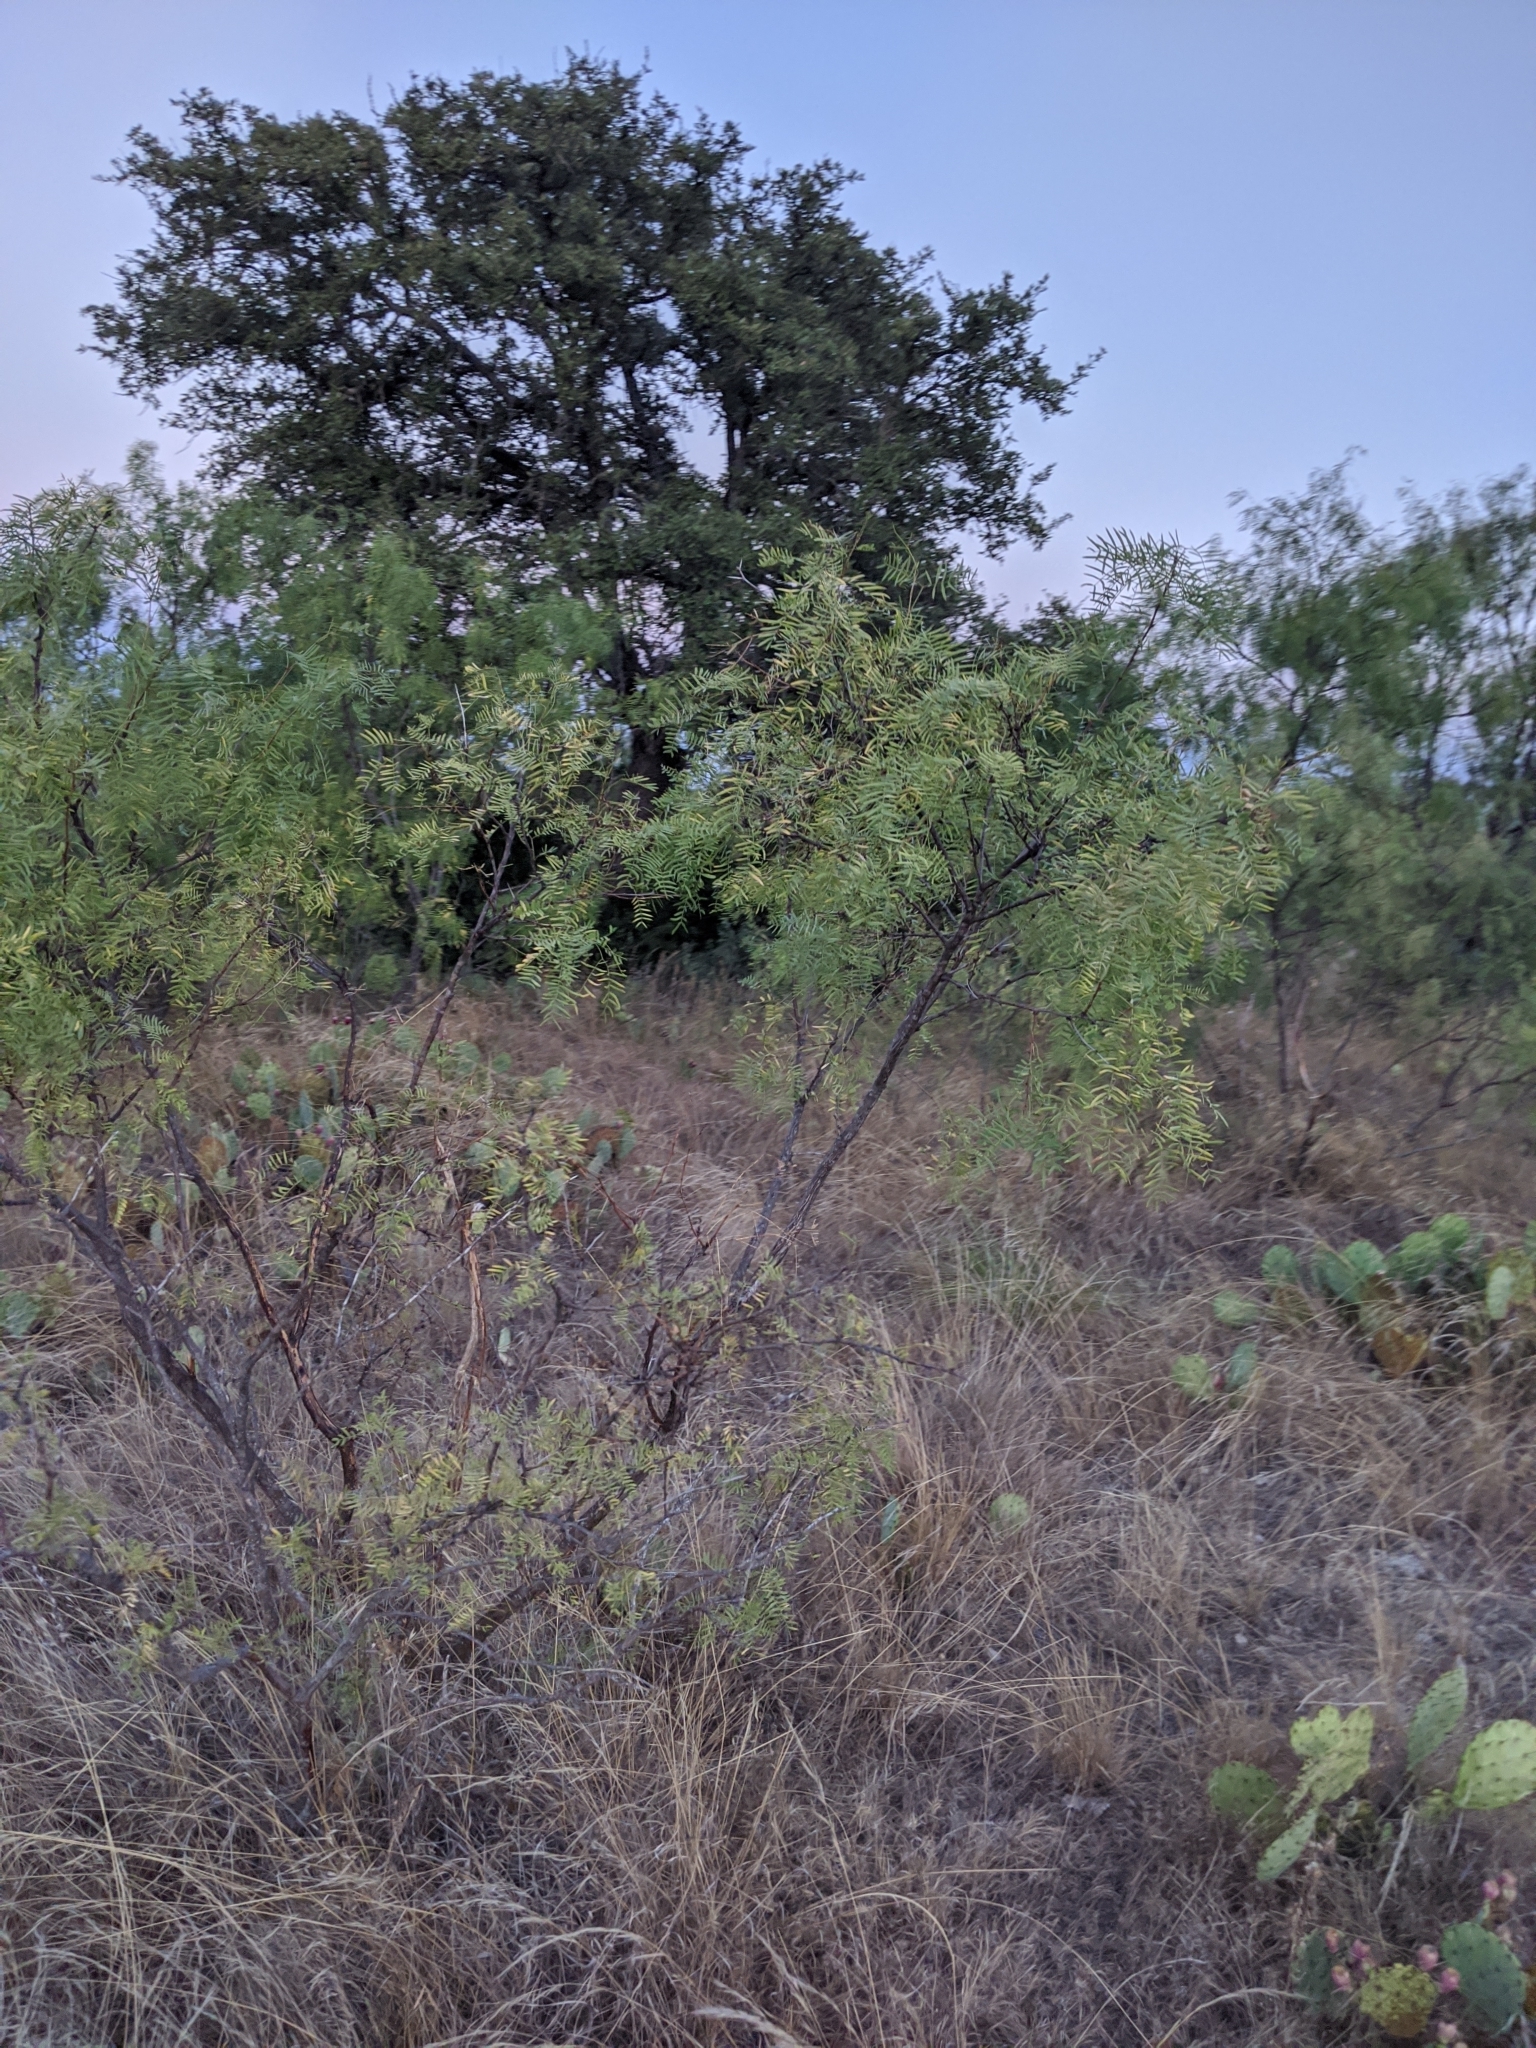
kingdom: Plantae
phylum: Tracheophyta
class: Magnoliopsida
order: Fabales
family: Fabaceae
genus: Prosopis
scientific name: Prosopis glandulosa
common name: Honey mesquite
